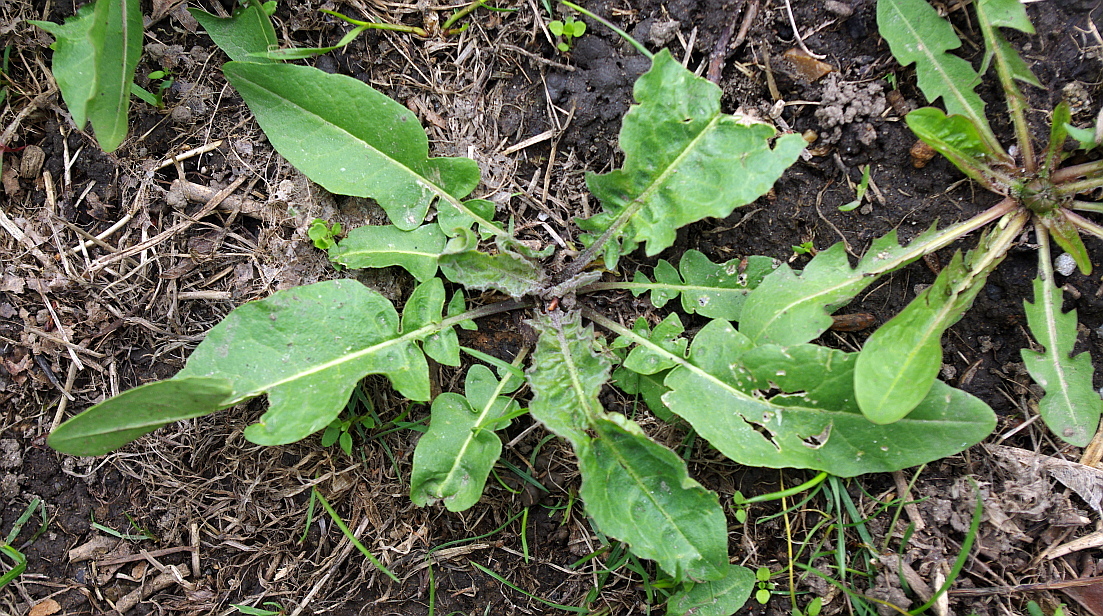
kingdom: Plantae
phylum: Tracheophyta
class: Magnoliopsida
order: Brassicales
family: Brassicaceae
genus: Bunias
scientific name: Bunias orientalis
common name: Warty-cabbage
